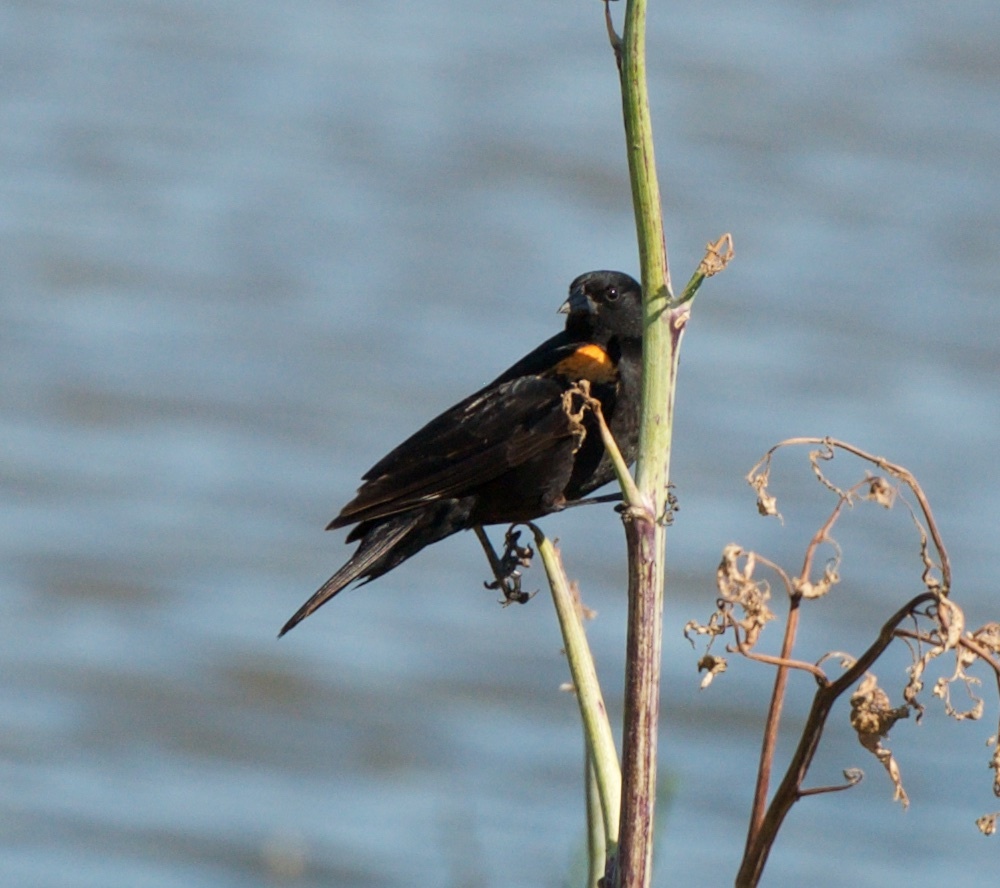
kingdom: Animalia
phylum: Chordata
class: Aves
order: Passeriformes
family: Icteridae
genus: Agelaius
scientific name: Agelaius phoeniceus
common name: Red-winged blackbird
